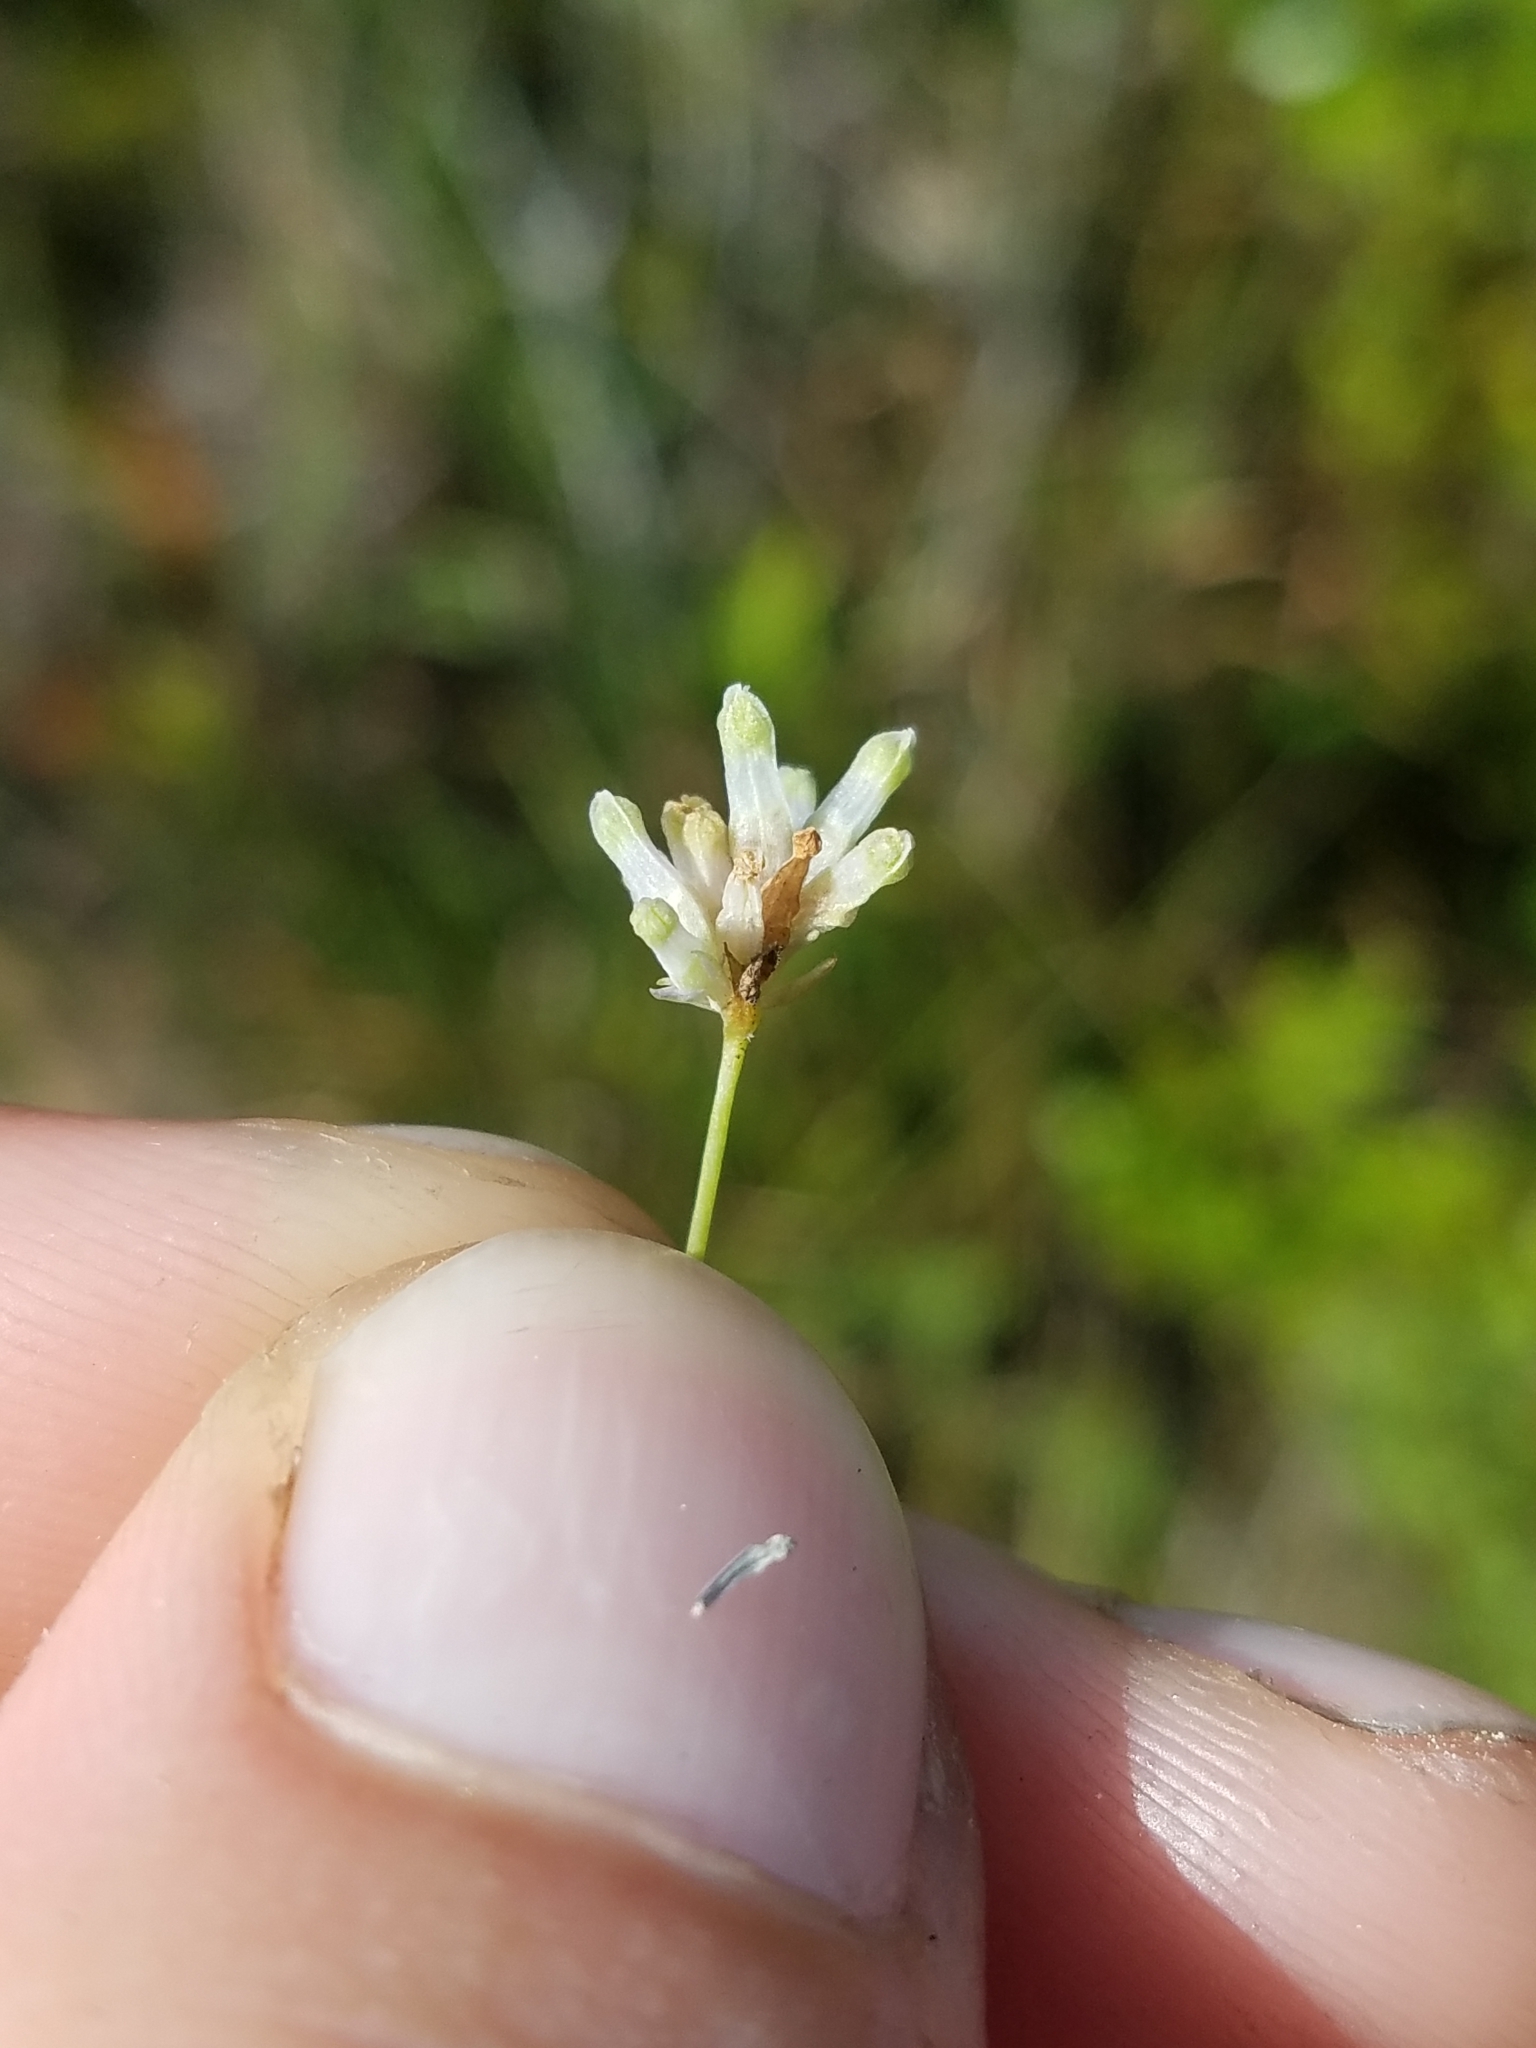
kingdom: Plantae
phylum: Tracheophyta
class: Liliopsida
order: Dioscoreales
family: Burmanniaceae
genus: Burmannia
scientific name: Burmannia capitata
